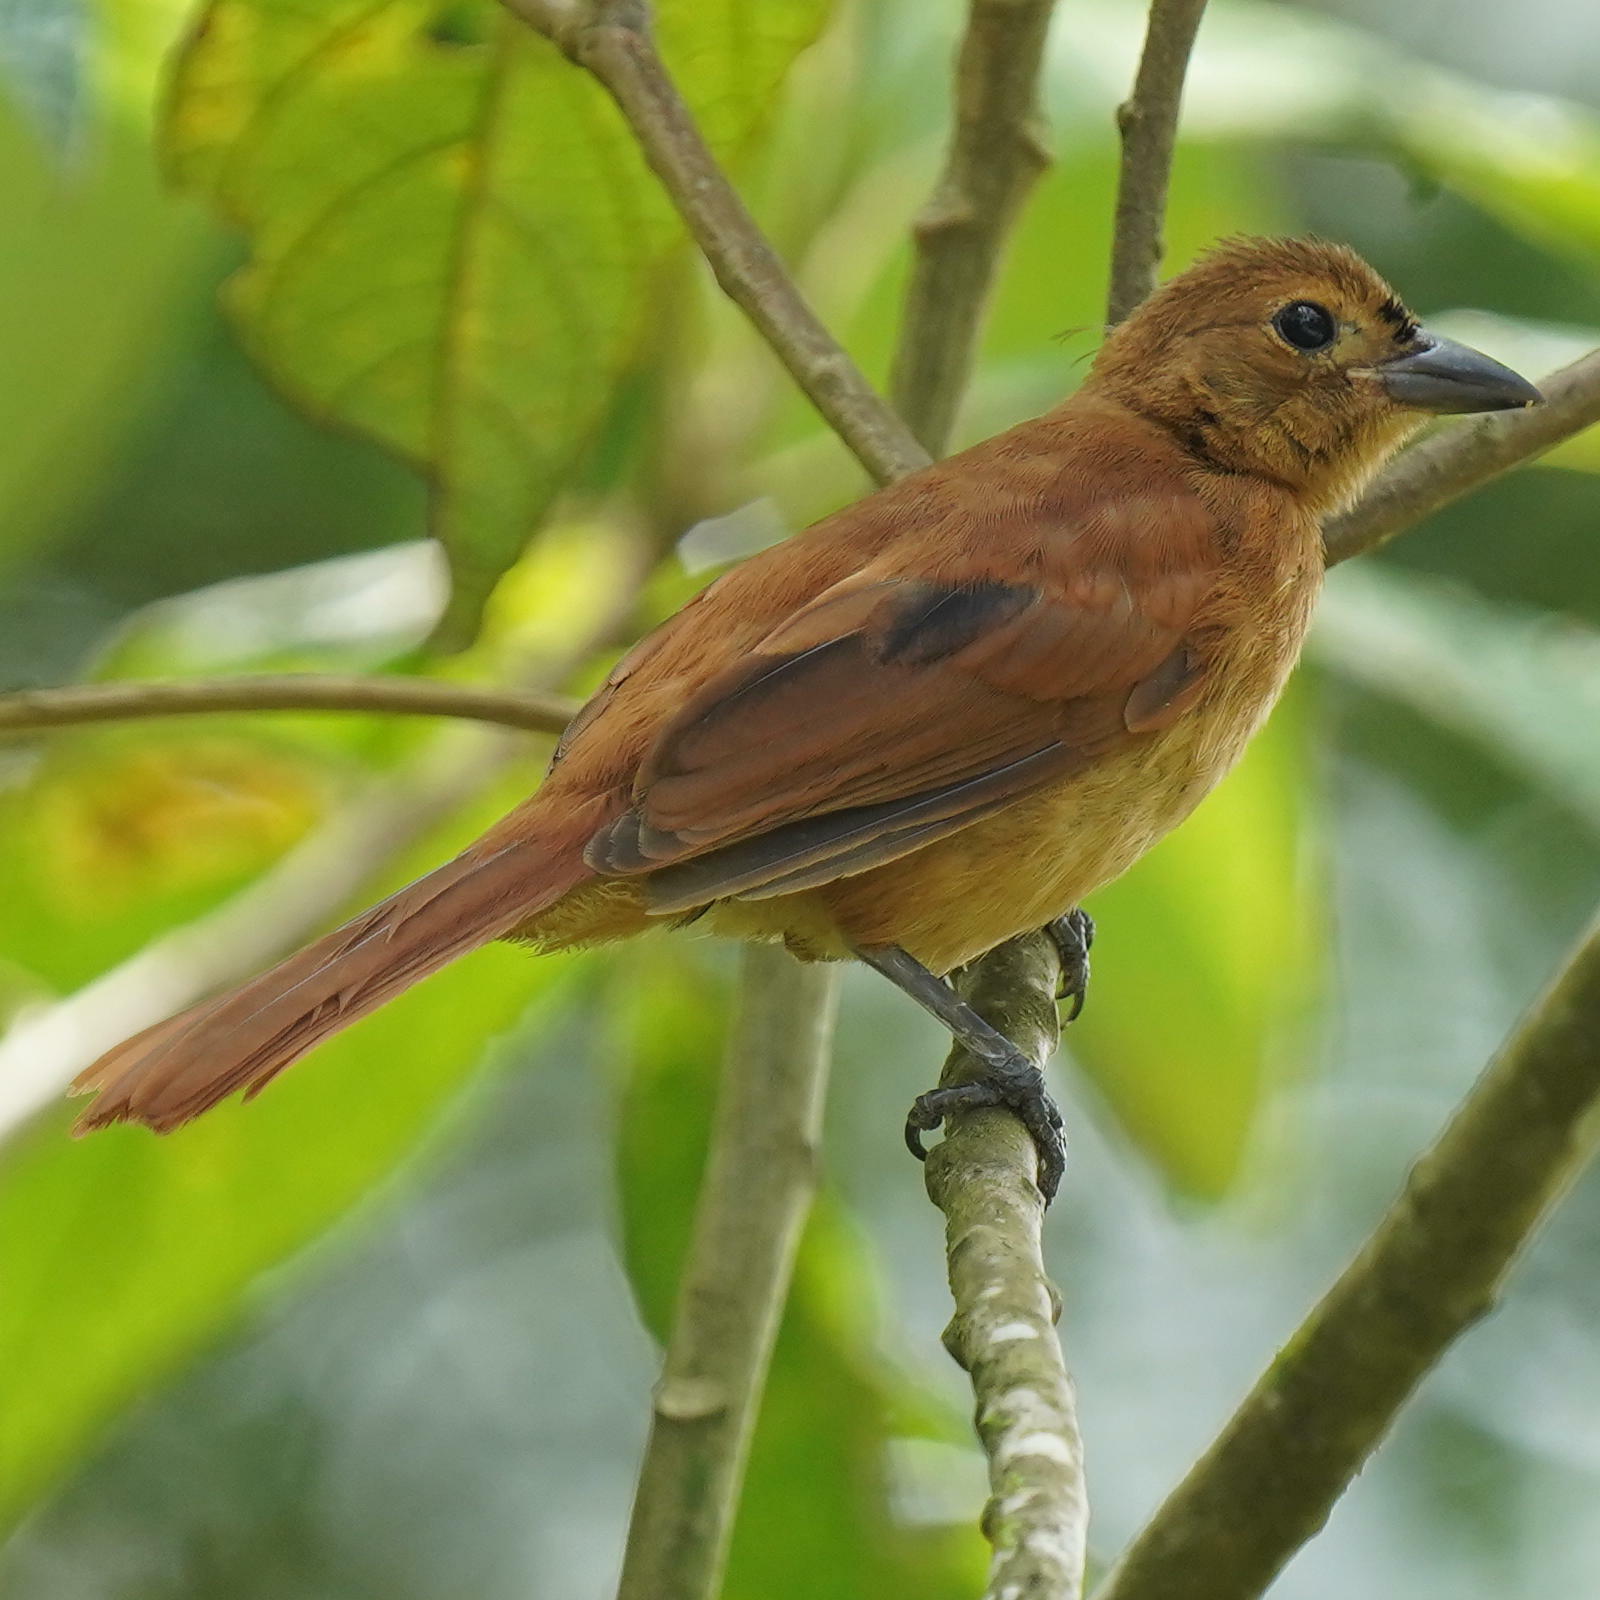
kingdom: Animalia
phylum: Chordata
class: Aves
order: Passeriformes
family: Thraupidae
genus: Tachyphonus
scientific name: Tachyphonus rufus
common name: White-lined tanager
